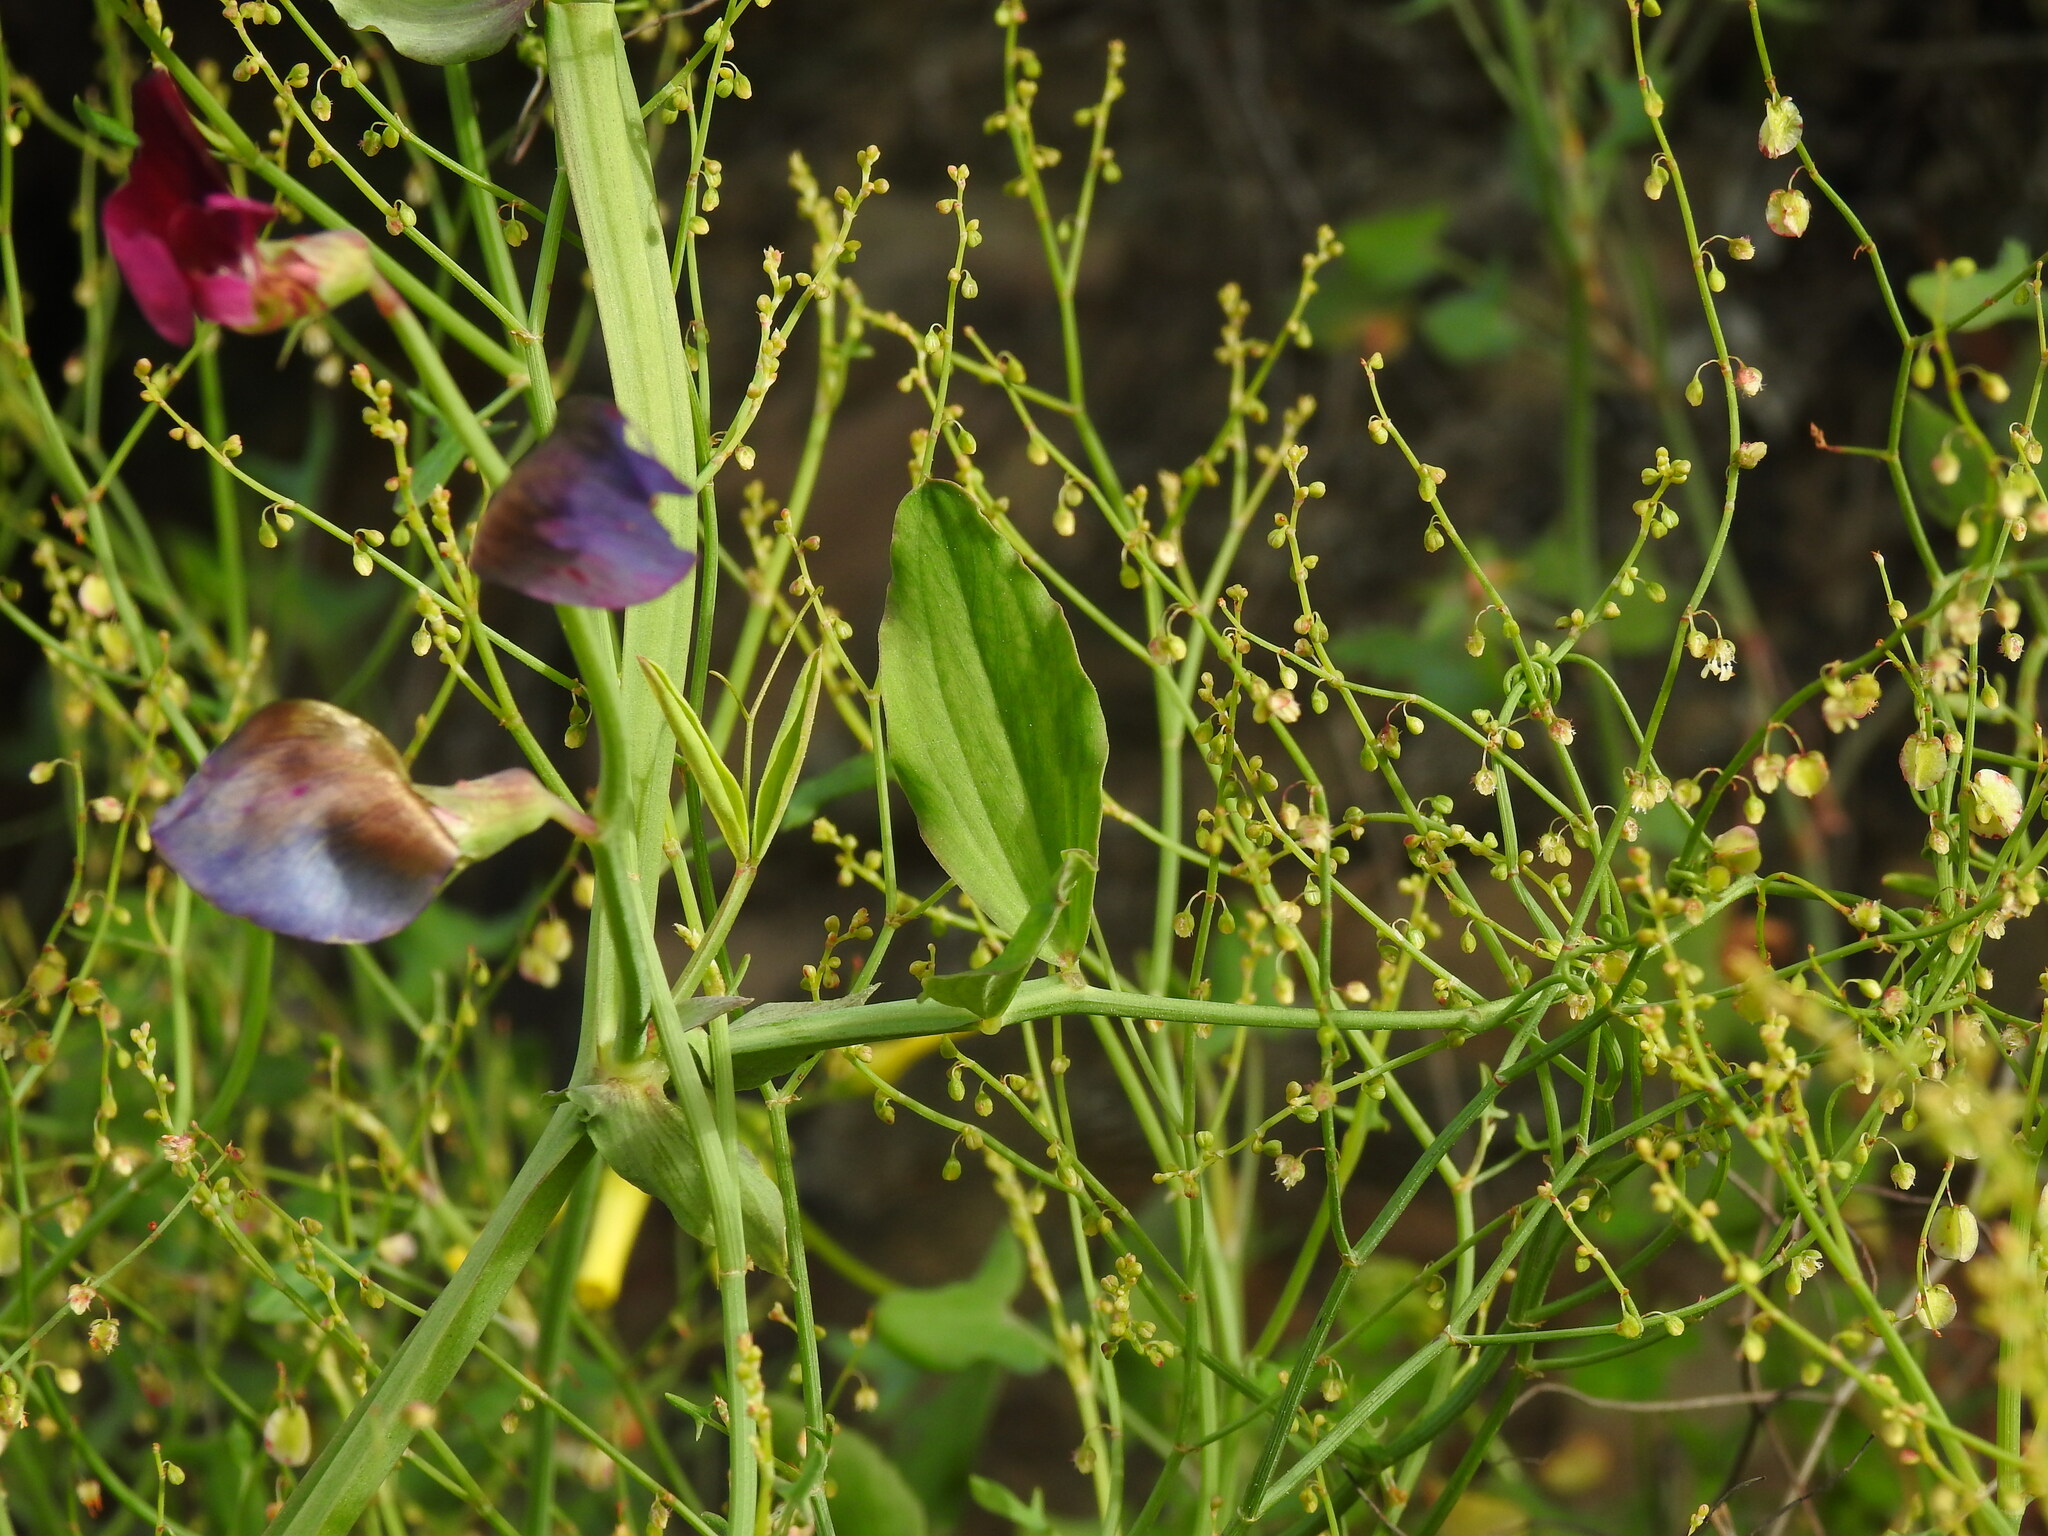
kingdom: Plantae
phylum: Tracheophyta
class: Magnoliopsida
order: Fabales
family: Fabaceae
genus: Lathyrus
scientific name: Lathyrus tingitanus
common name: Tangier pea
